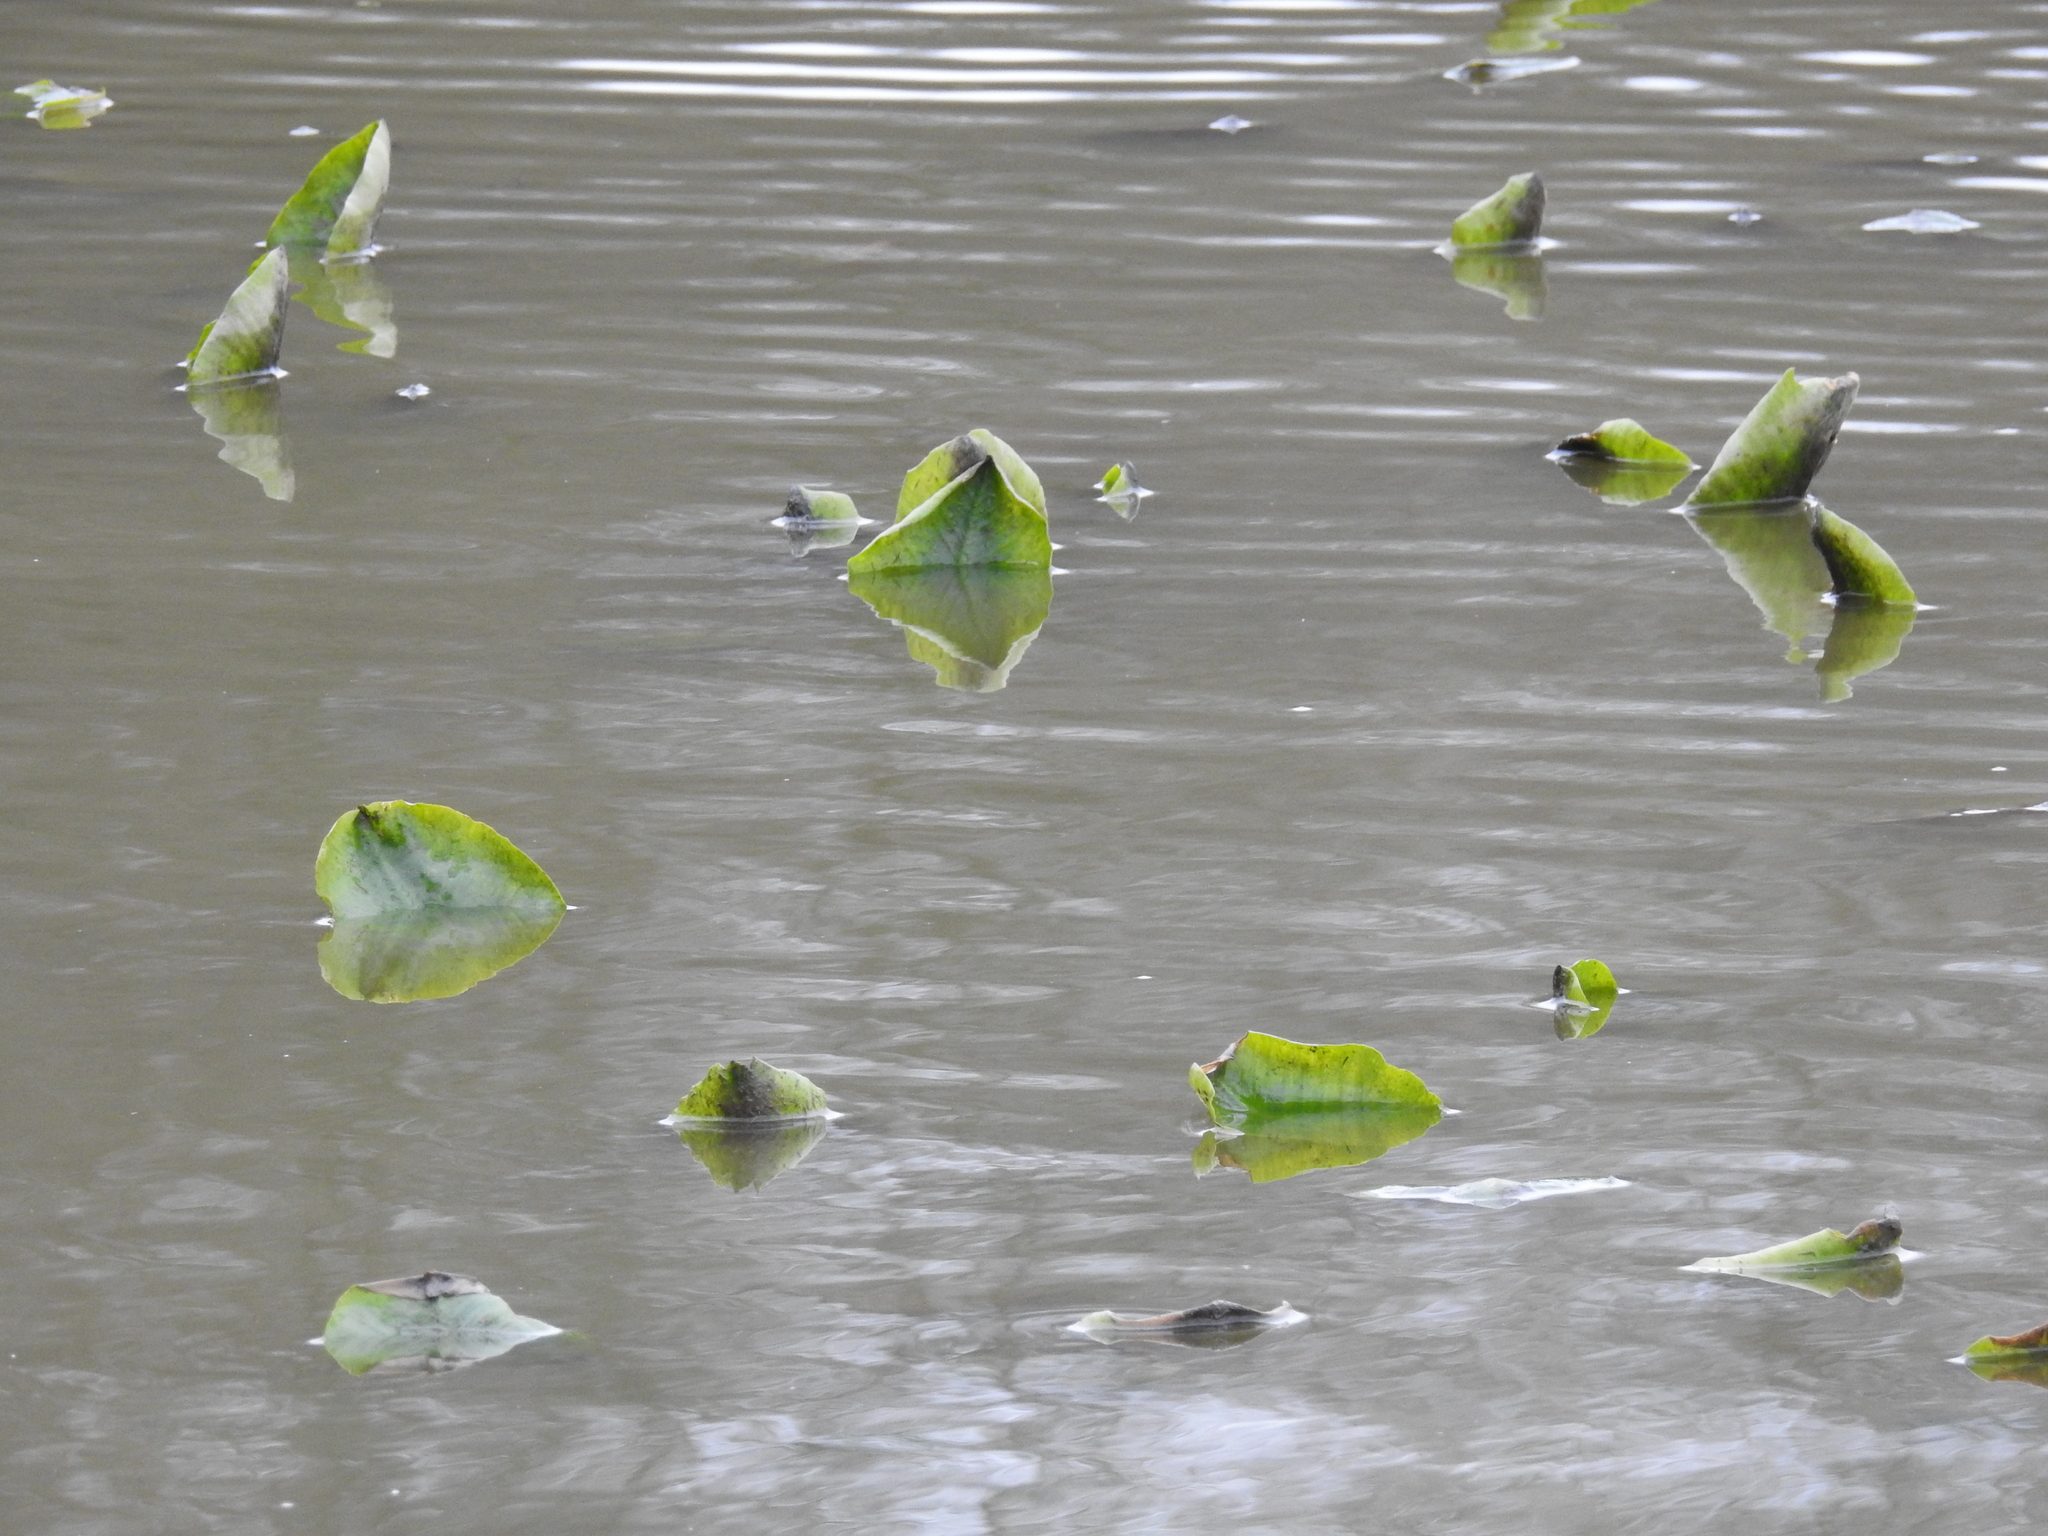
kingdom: Plantae
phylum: Tracheophyta
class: Magnoliopsida
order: Nymphaeales
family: Nymphaeaceae
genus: Nuphar
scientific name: Nuphar advena
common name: Spatter-dock
